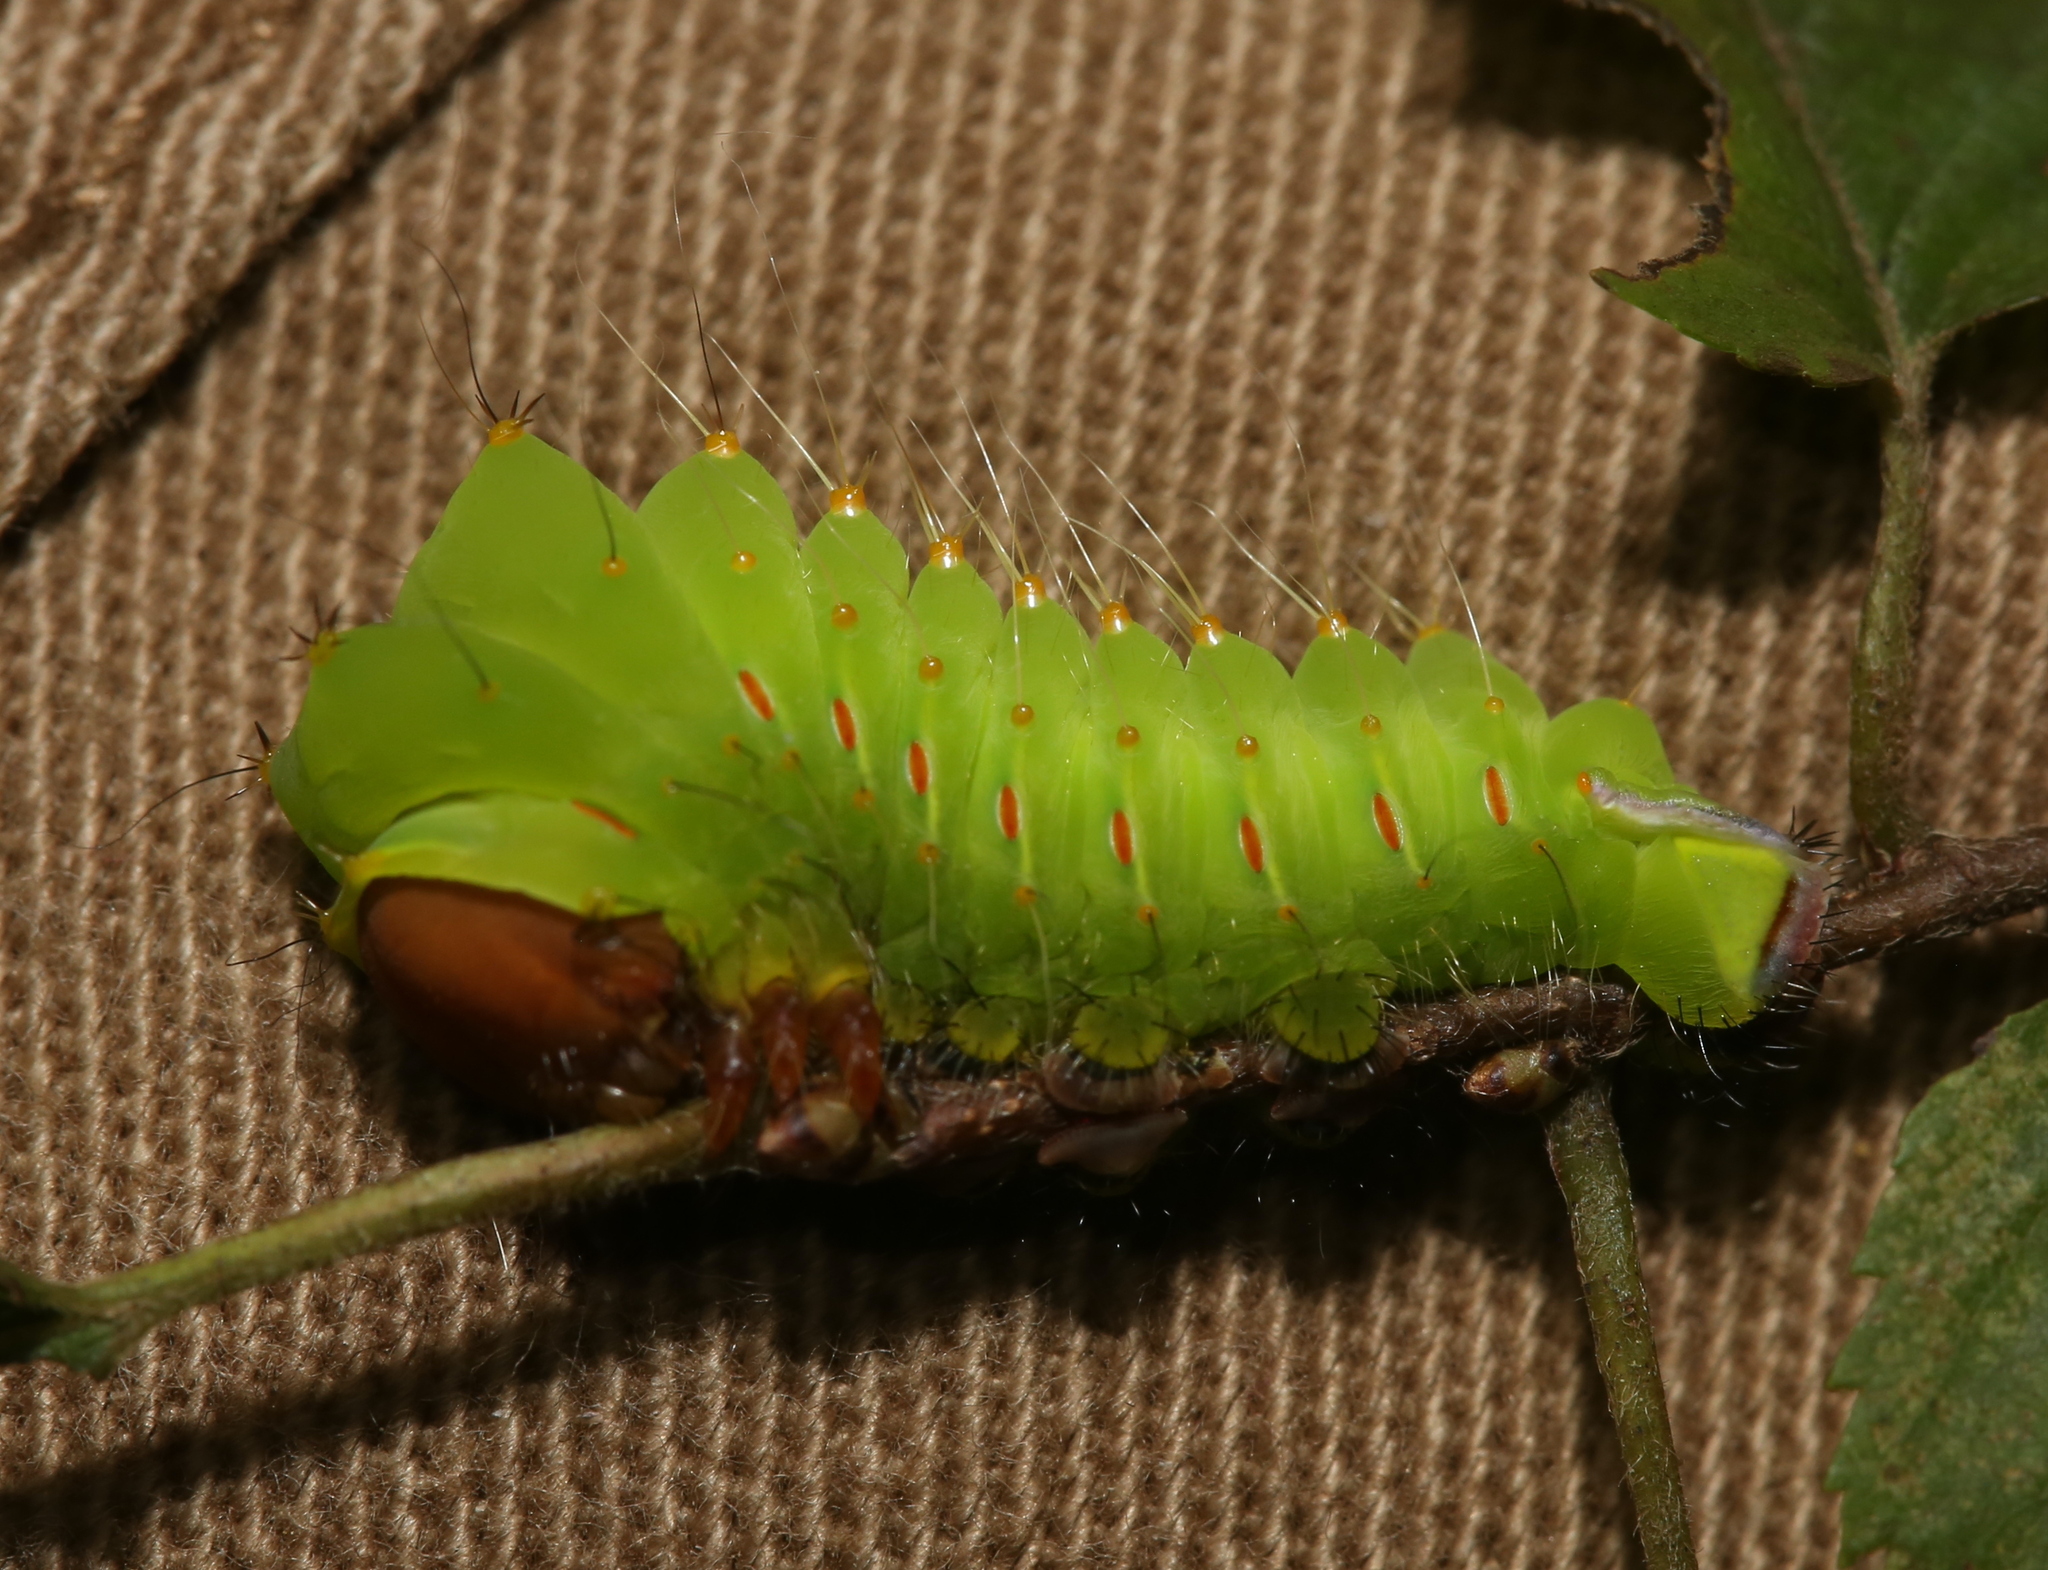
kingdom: Animalia
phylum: Arthropoda
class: Insecta
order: Lepidoptera
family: Saturniidae
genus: Antheraea
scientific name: Antheraea polyphemus
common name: Polyphemus moth
